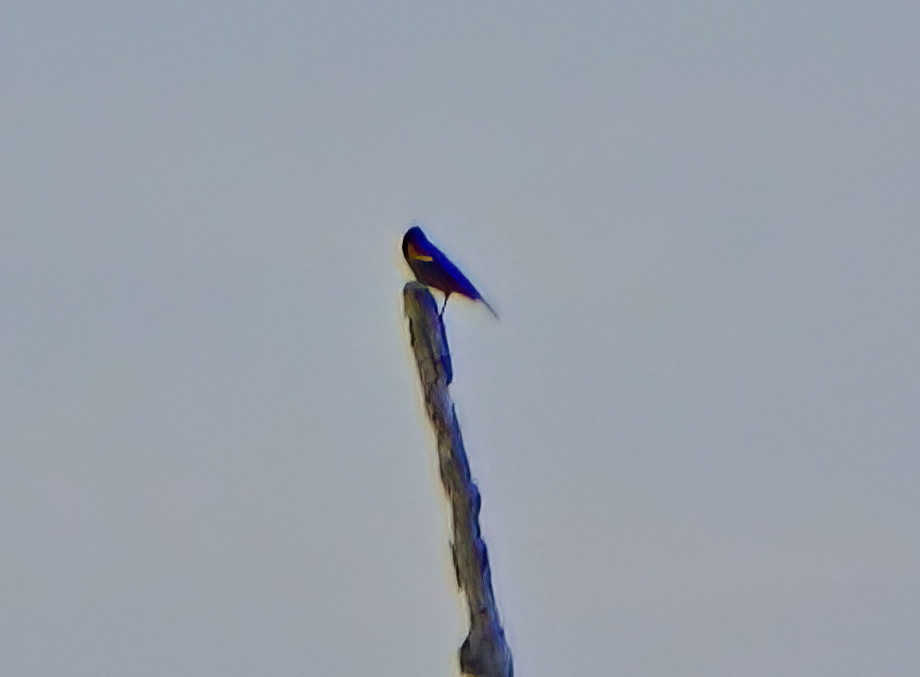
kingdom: Animalia
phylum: Chordata
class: Aves
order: Passeriformes
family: Icteridae
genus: Agelaius
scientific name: Agelaius phoeniceus
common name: Red-winged blackbird
